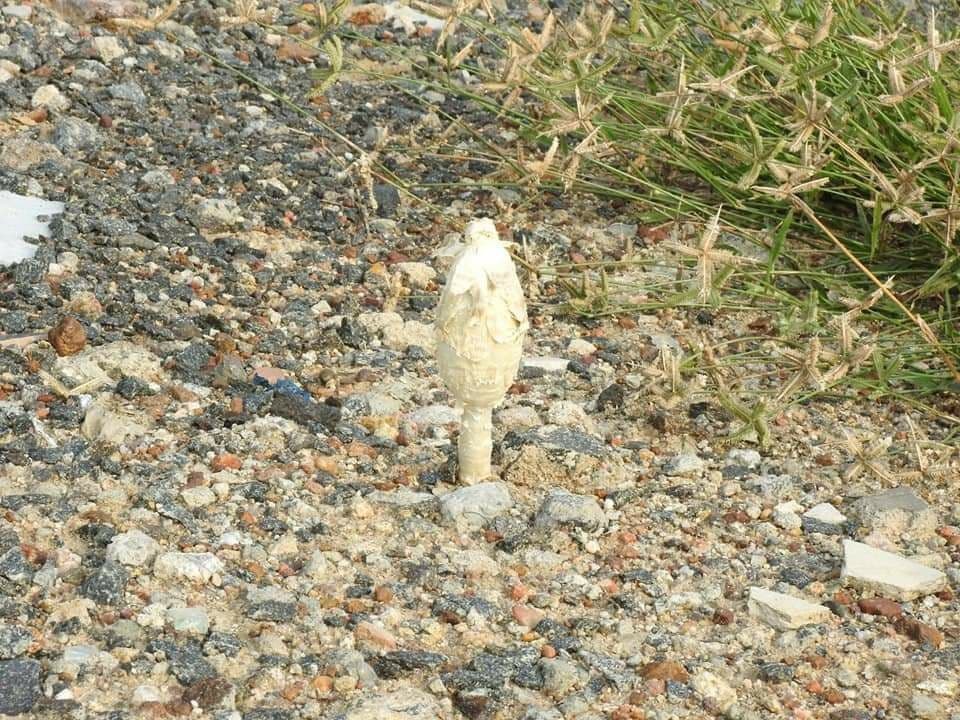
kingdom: Fungi
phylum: Basidiomycota
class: Agaricomycetes
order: Agaricales
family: Agaricaceae
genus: Podaxis
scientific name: Podaxis pistillaris
